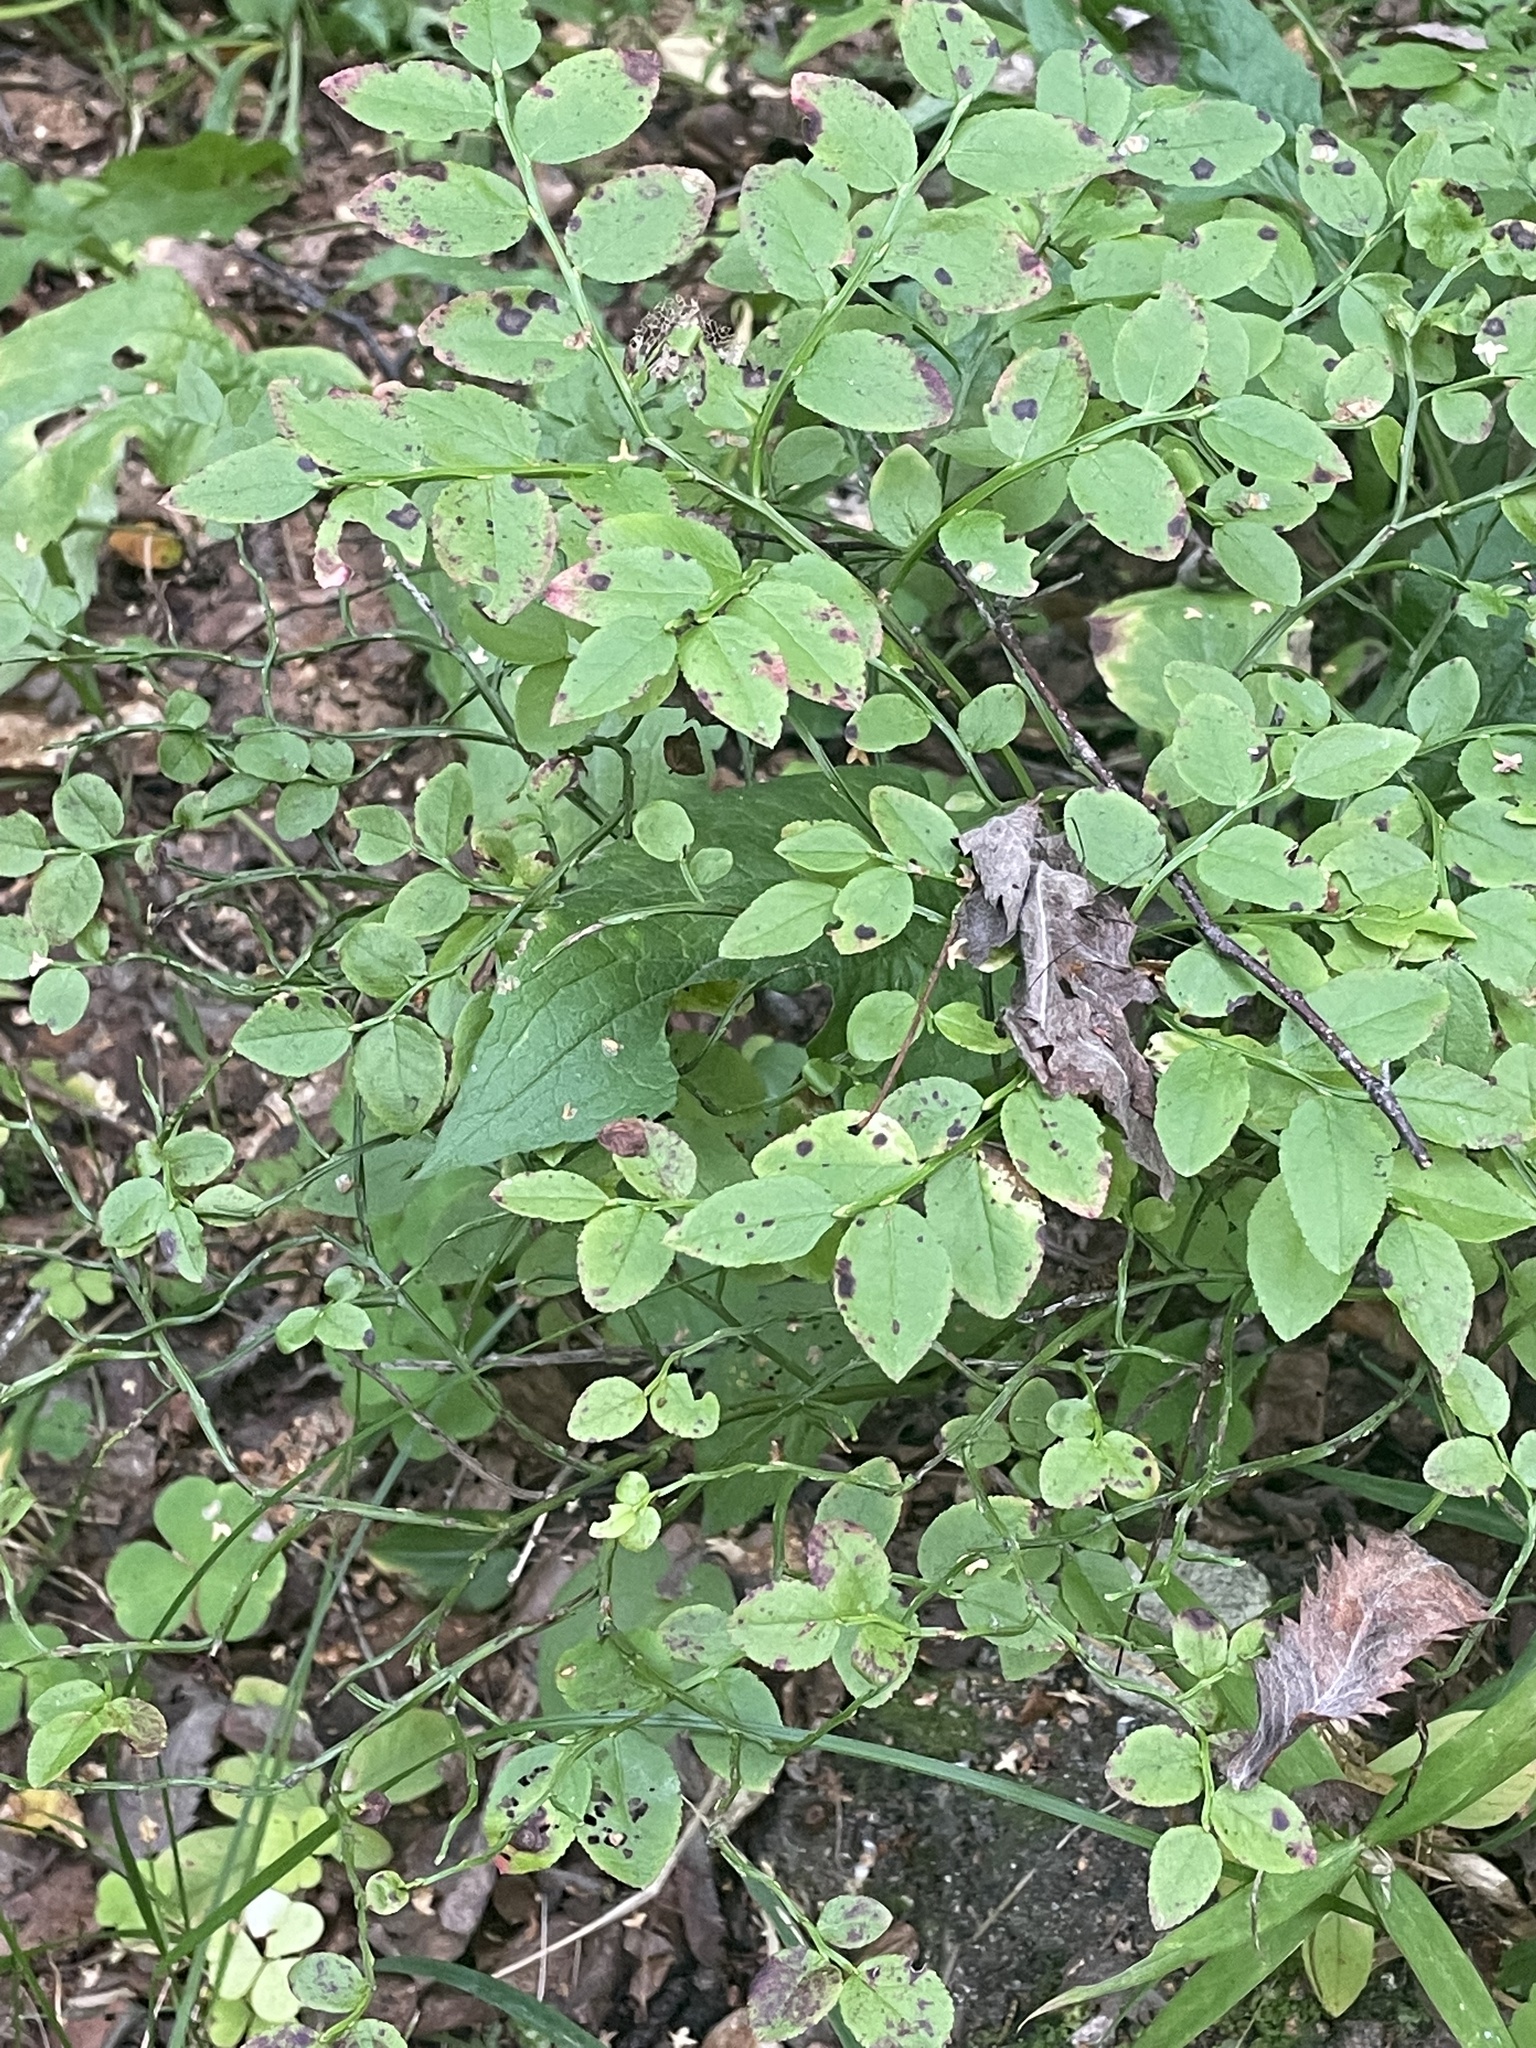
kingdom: Plantae
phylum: Tracheophyta
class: Magnoliopsida
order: Ericales
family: Ericaceae
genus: Vaccinium
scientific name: Vaccinium myrtillus
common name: Bilberry
